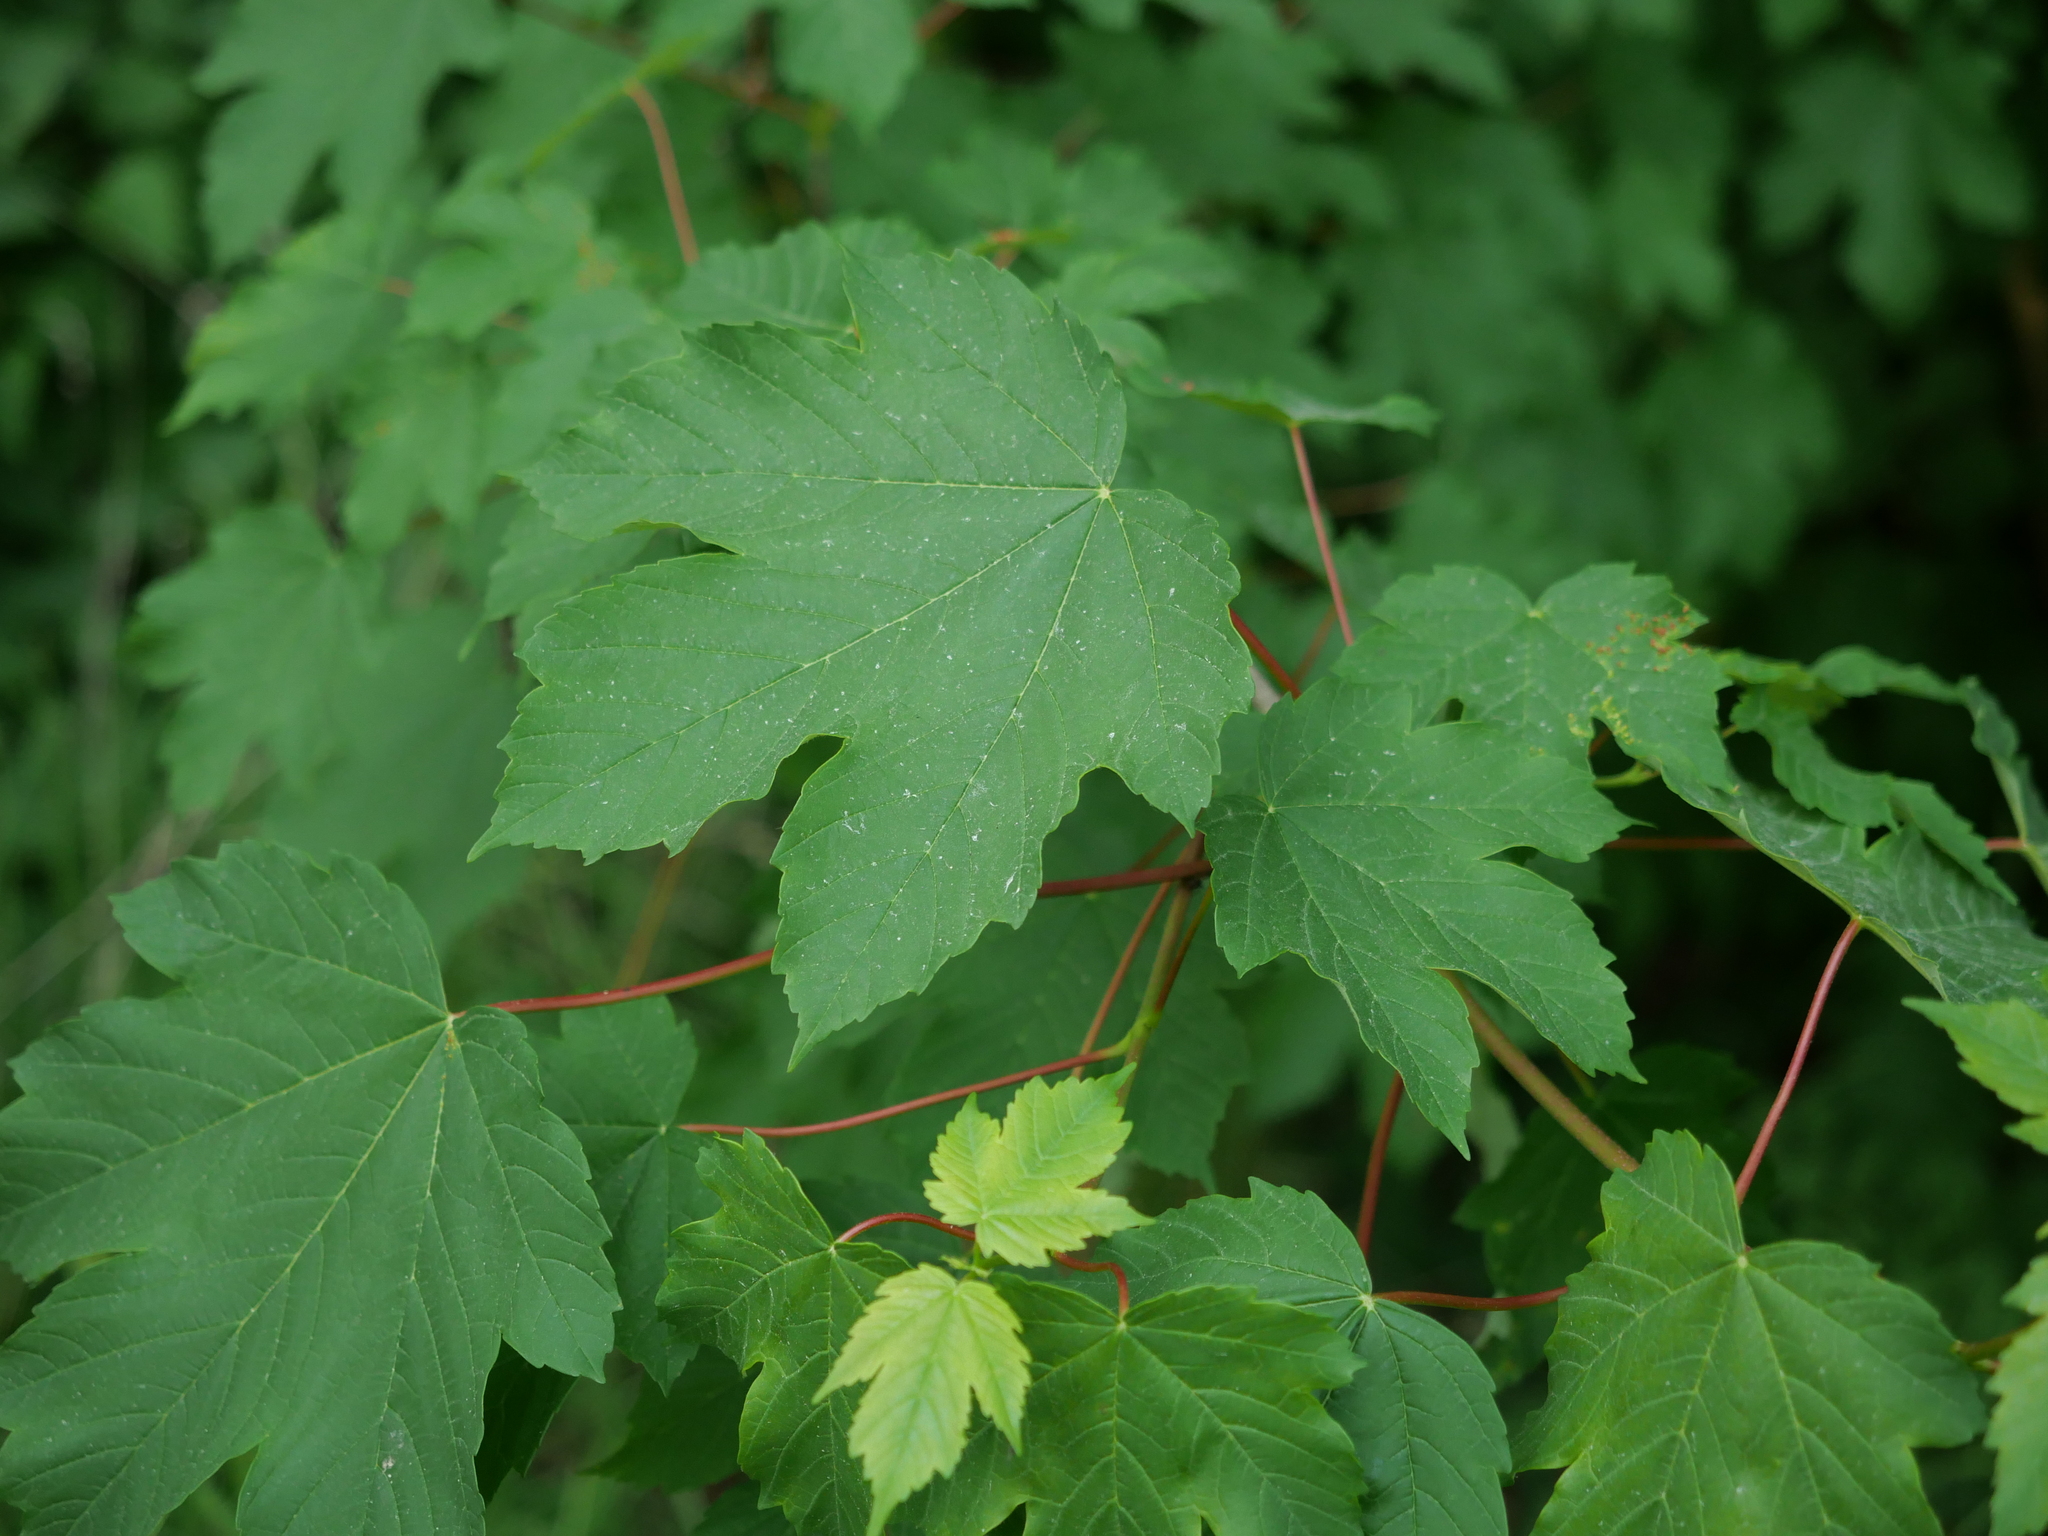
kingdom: Plantae
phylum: Tracheophyta
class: Magnoliopsida
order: Sapindales
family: Sapindaceae
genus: Acer
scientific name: Acer pseudoplatanus
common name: Sycamore
